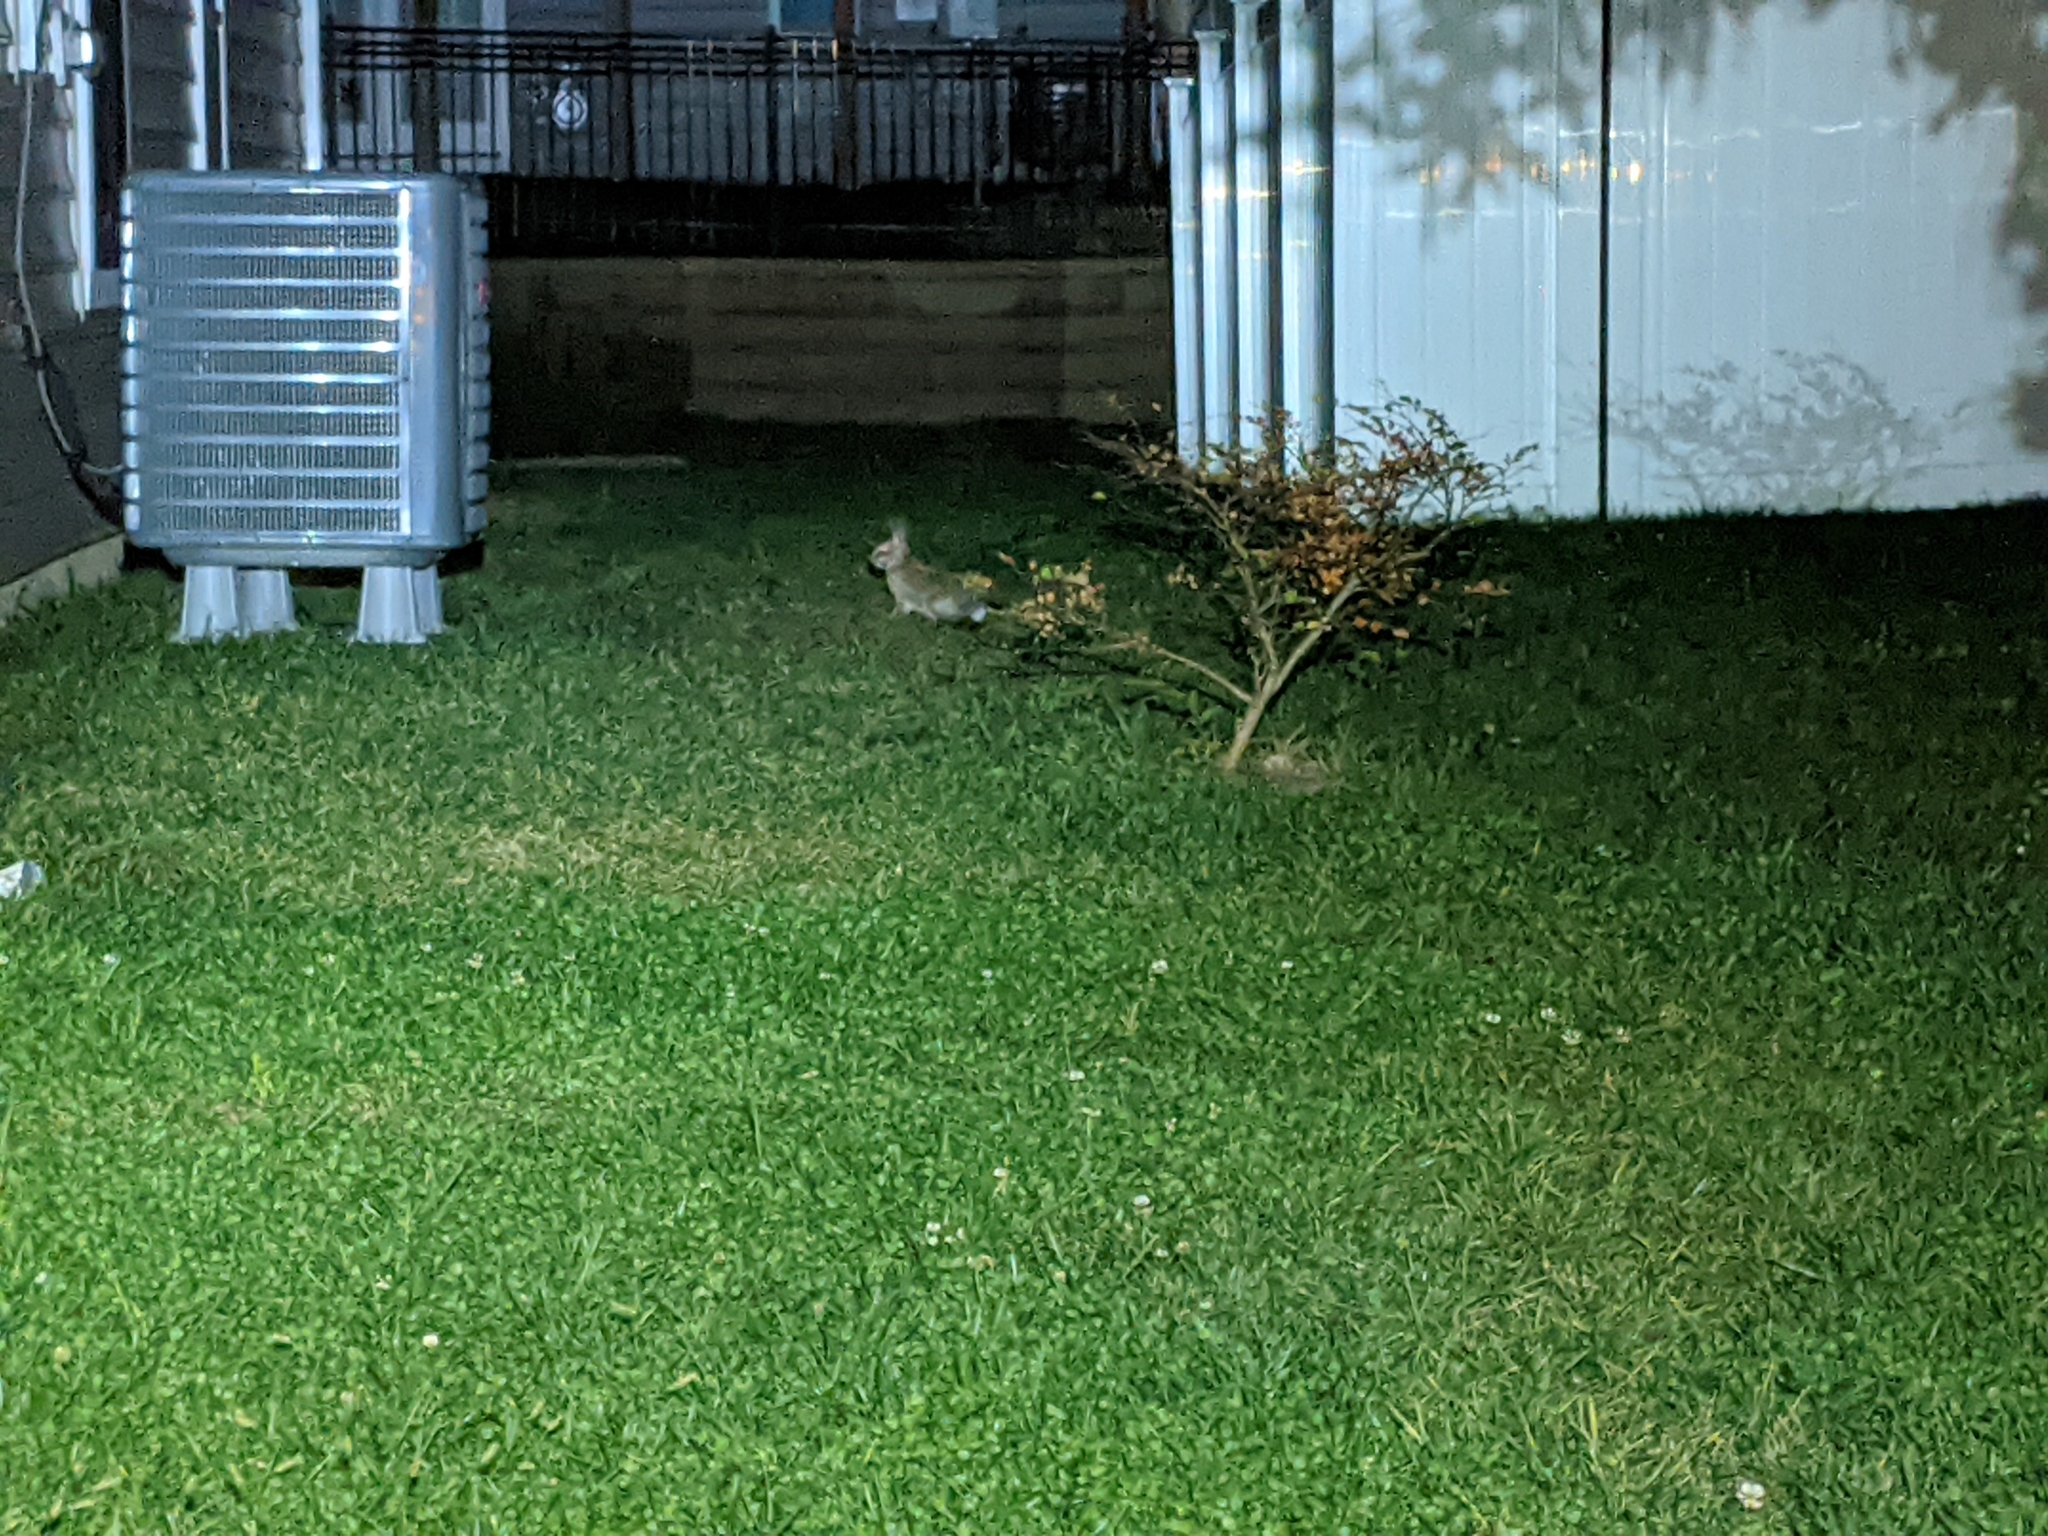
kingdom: Animalia
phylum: Chordata
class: Mammalia
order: Lagomorpha
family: Leporidae
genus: Sylvilagus
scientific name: Sylvilagus floridanus
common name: Eastern cottontail
